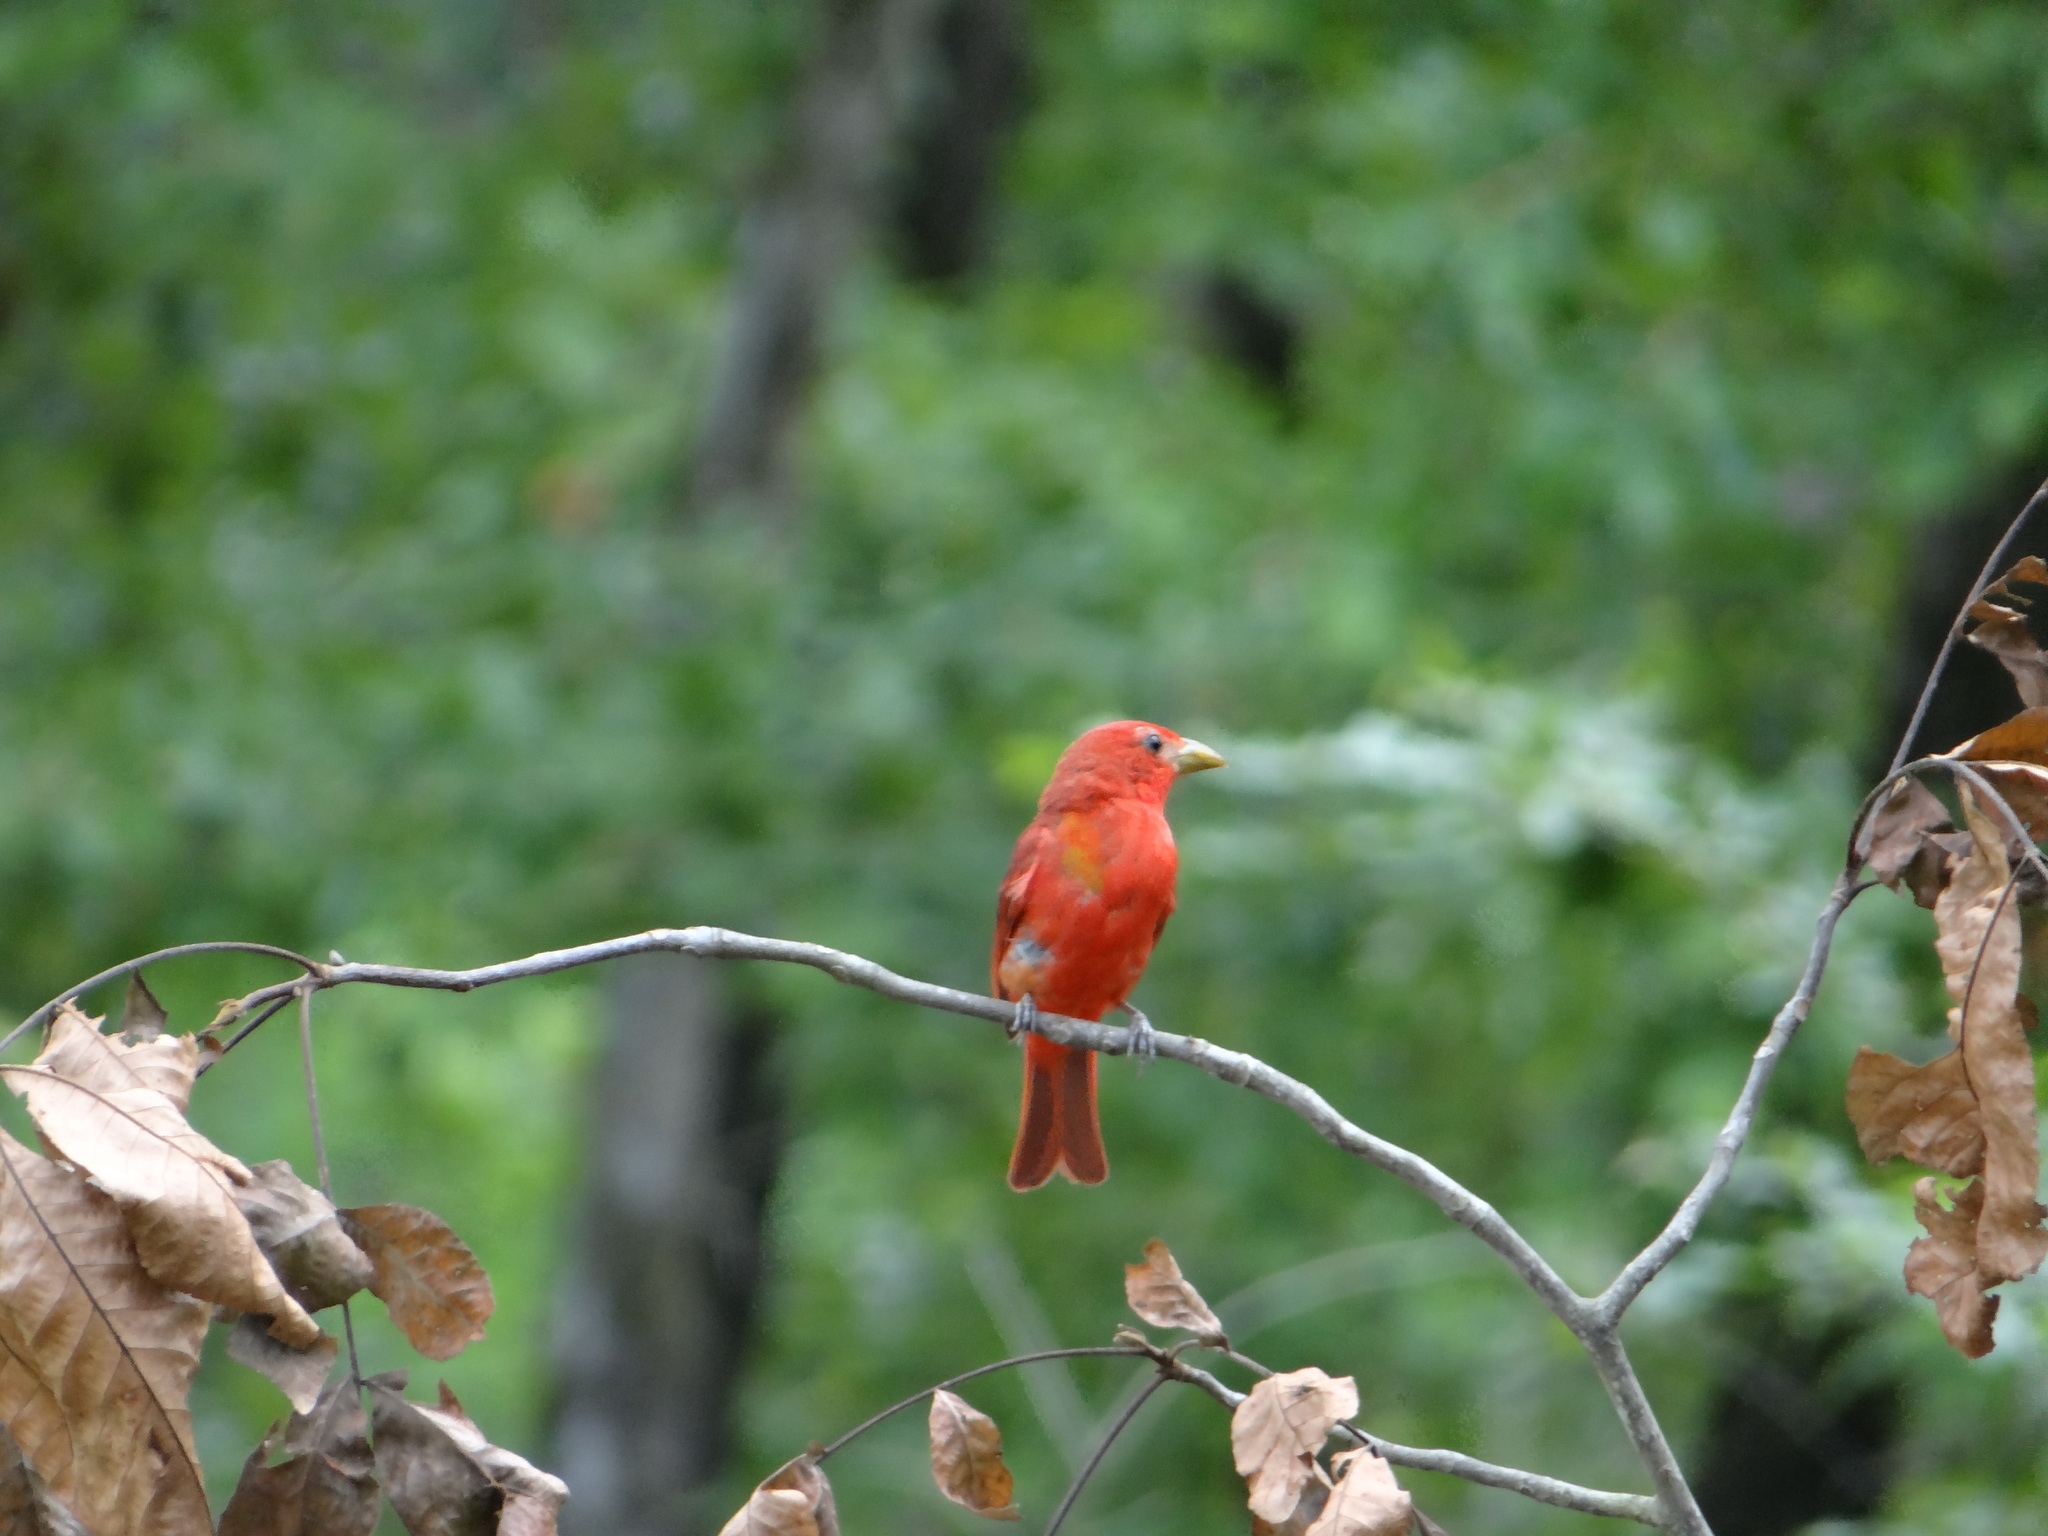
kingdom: Animalia
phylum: Chordata
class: Aves
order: Passeriformes
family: Cardinalidae
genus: Piranga
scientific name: Piranga rubra
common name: Summer tanager
